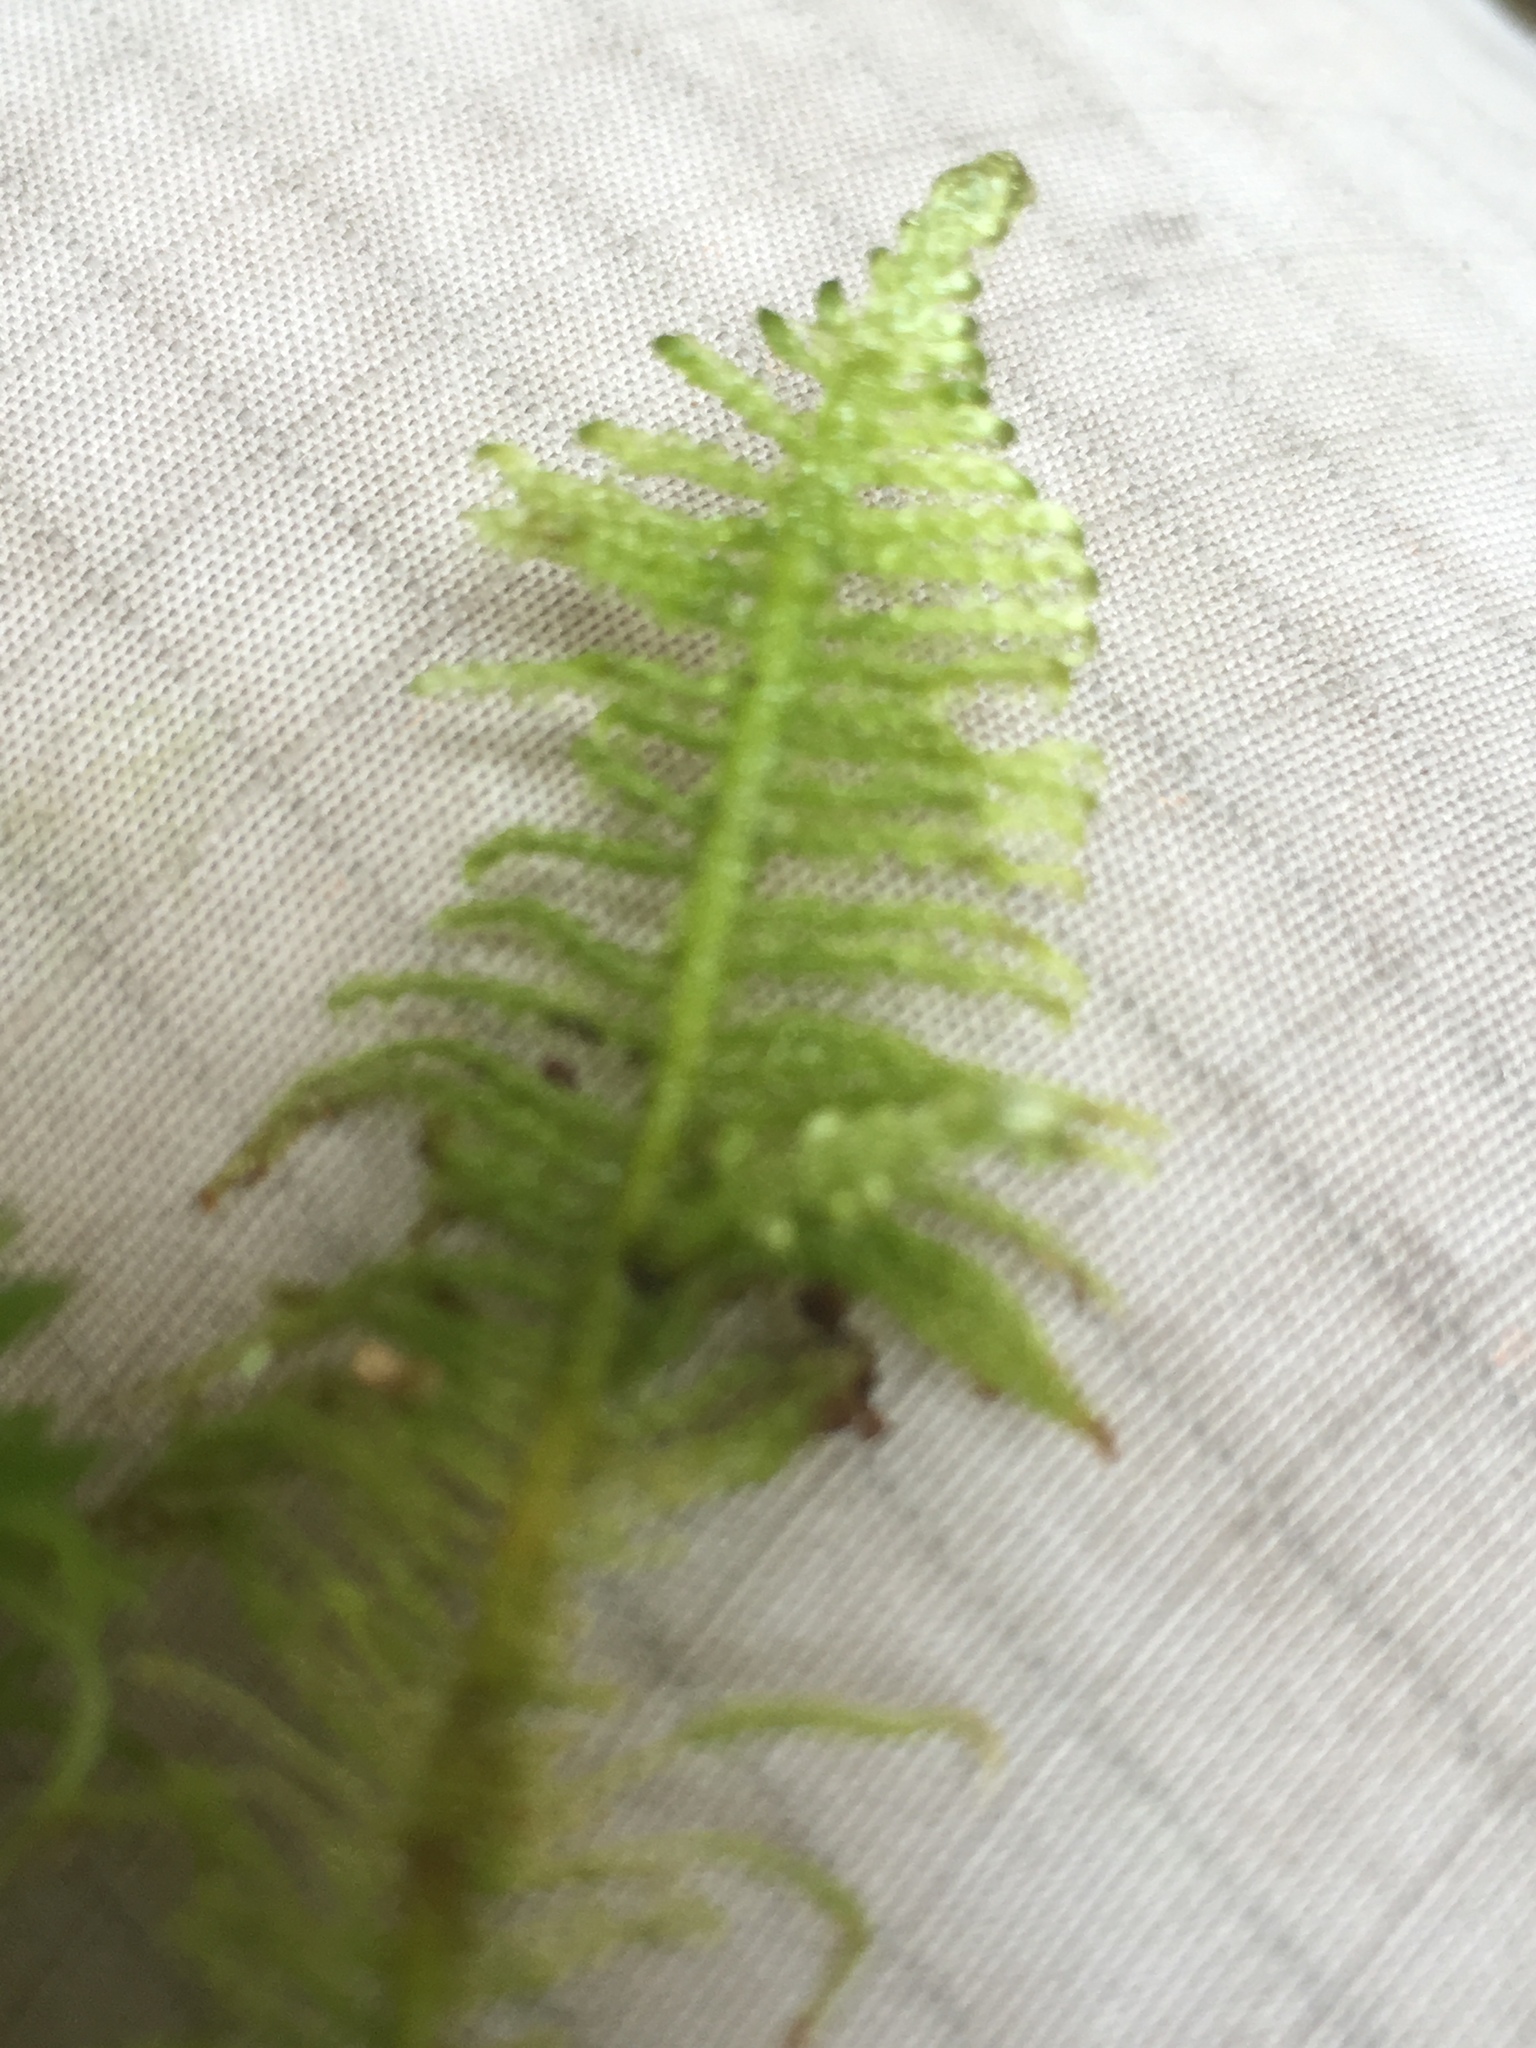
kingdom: Plantae
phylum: Bryophyta
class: Bryopsida
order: Hypnales
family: Pylaisiaceae
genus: Ptilium
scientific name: Ptilium crista-castrensis
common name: Knight's plume moss
